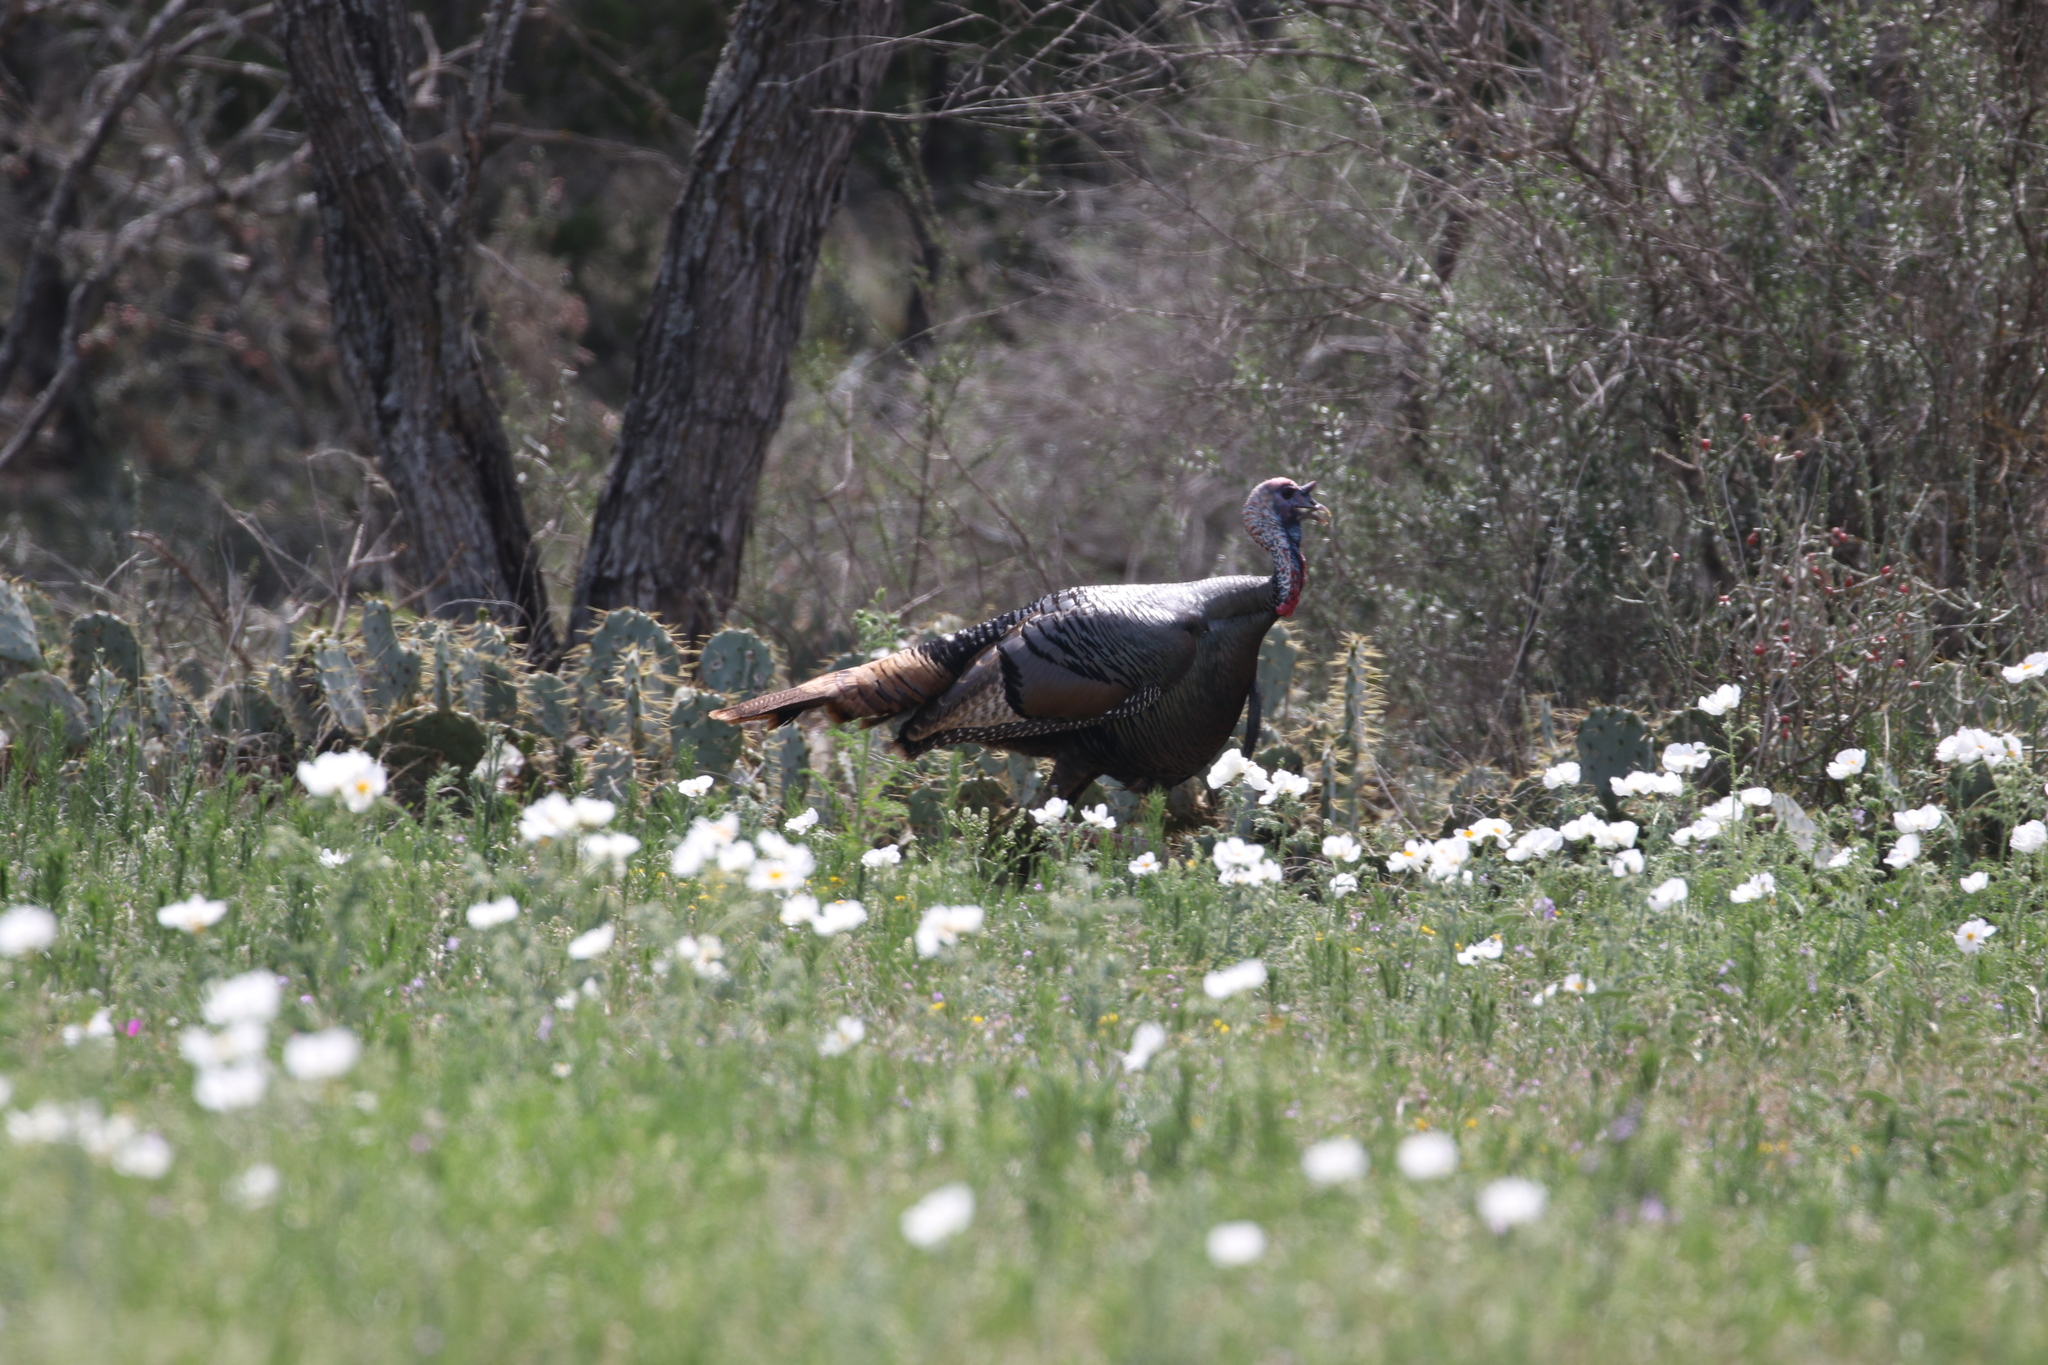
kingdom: Animalia
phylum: Chordata
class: Aves
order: Galliformes
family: Phasianidae
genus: Meleagris
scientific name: Meleagris gallopavo
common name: Wild turkey
